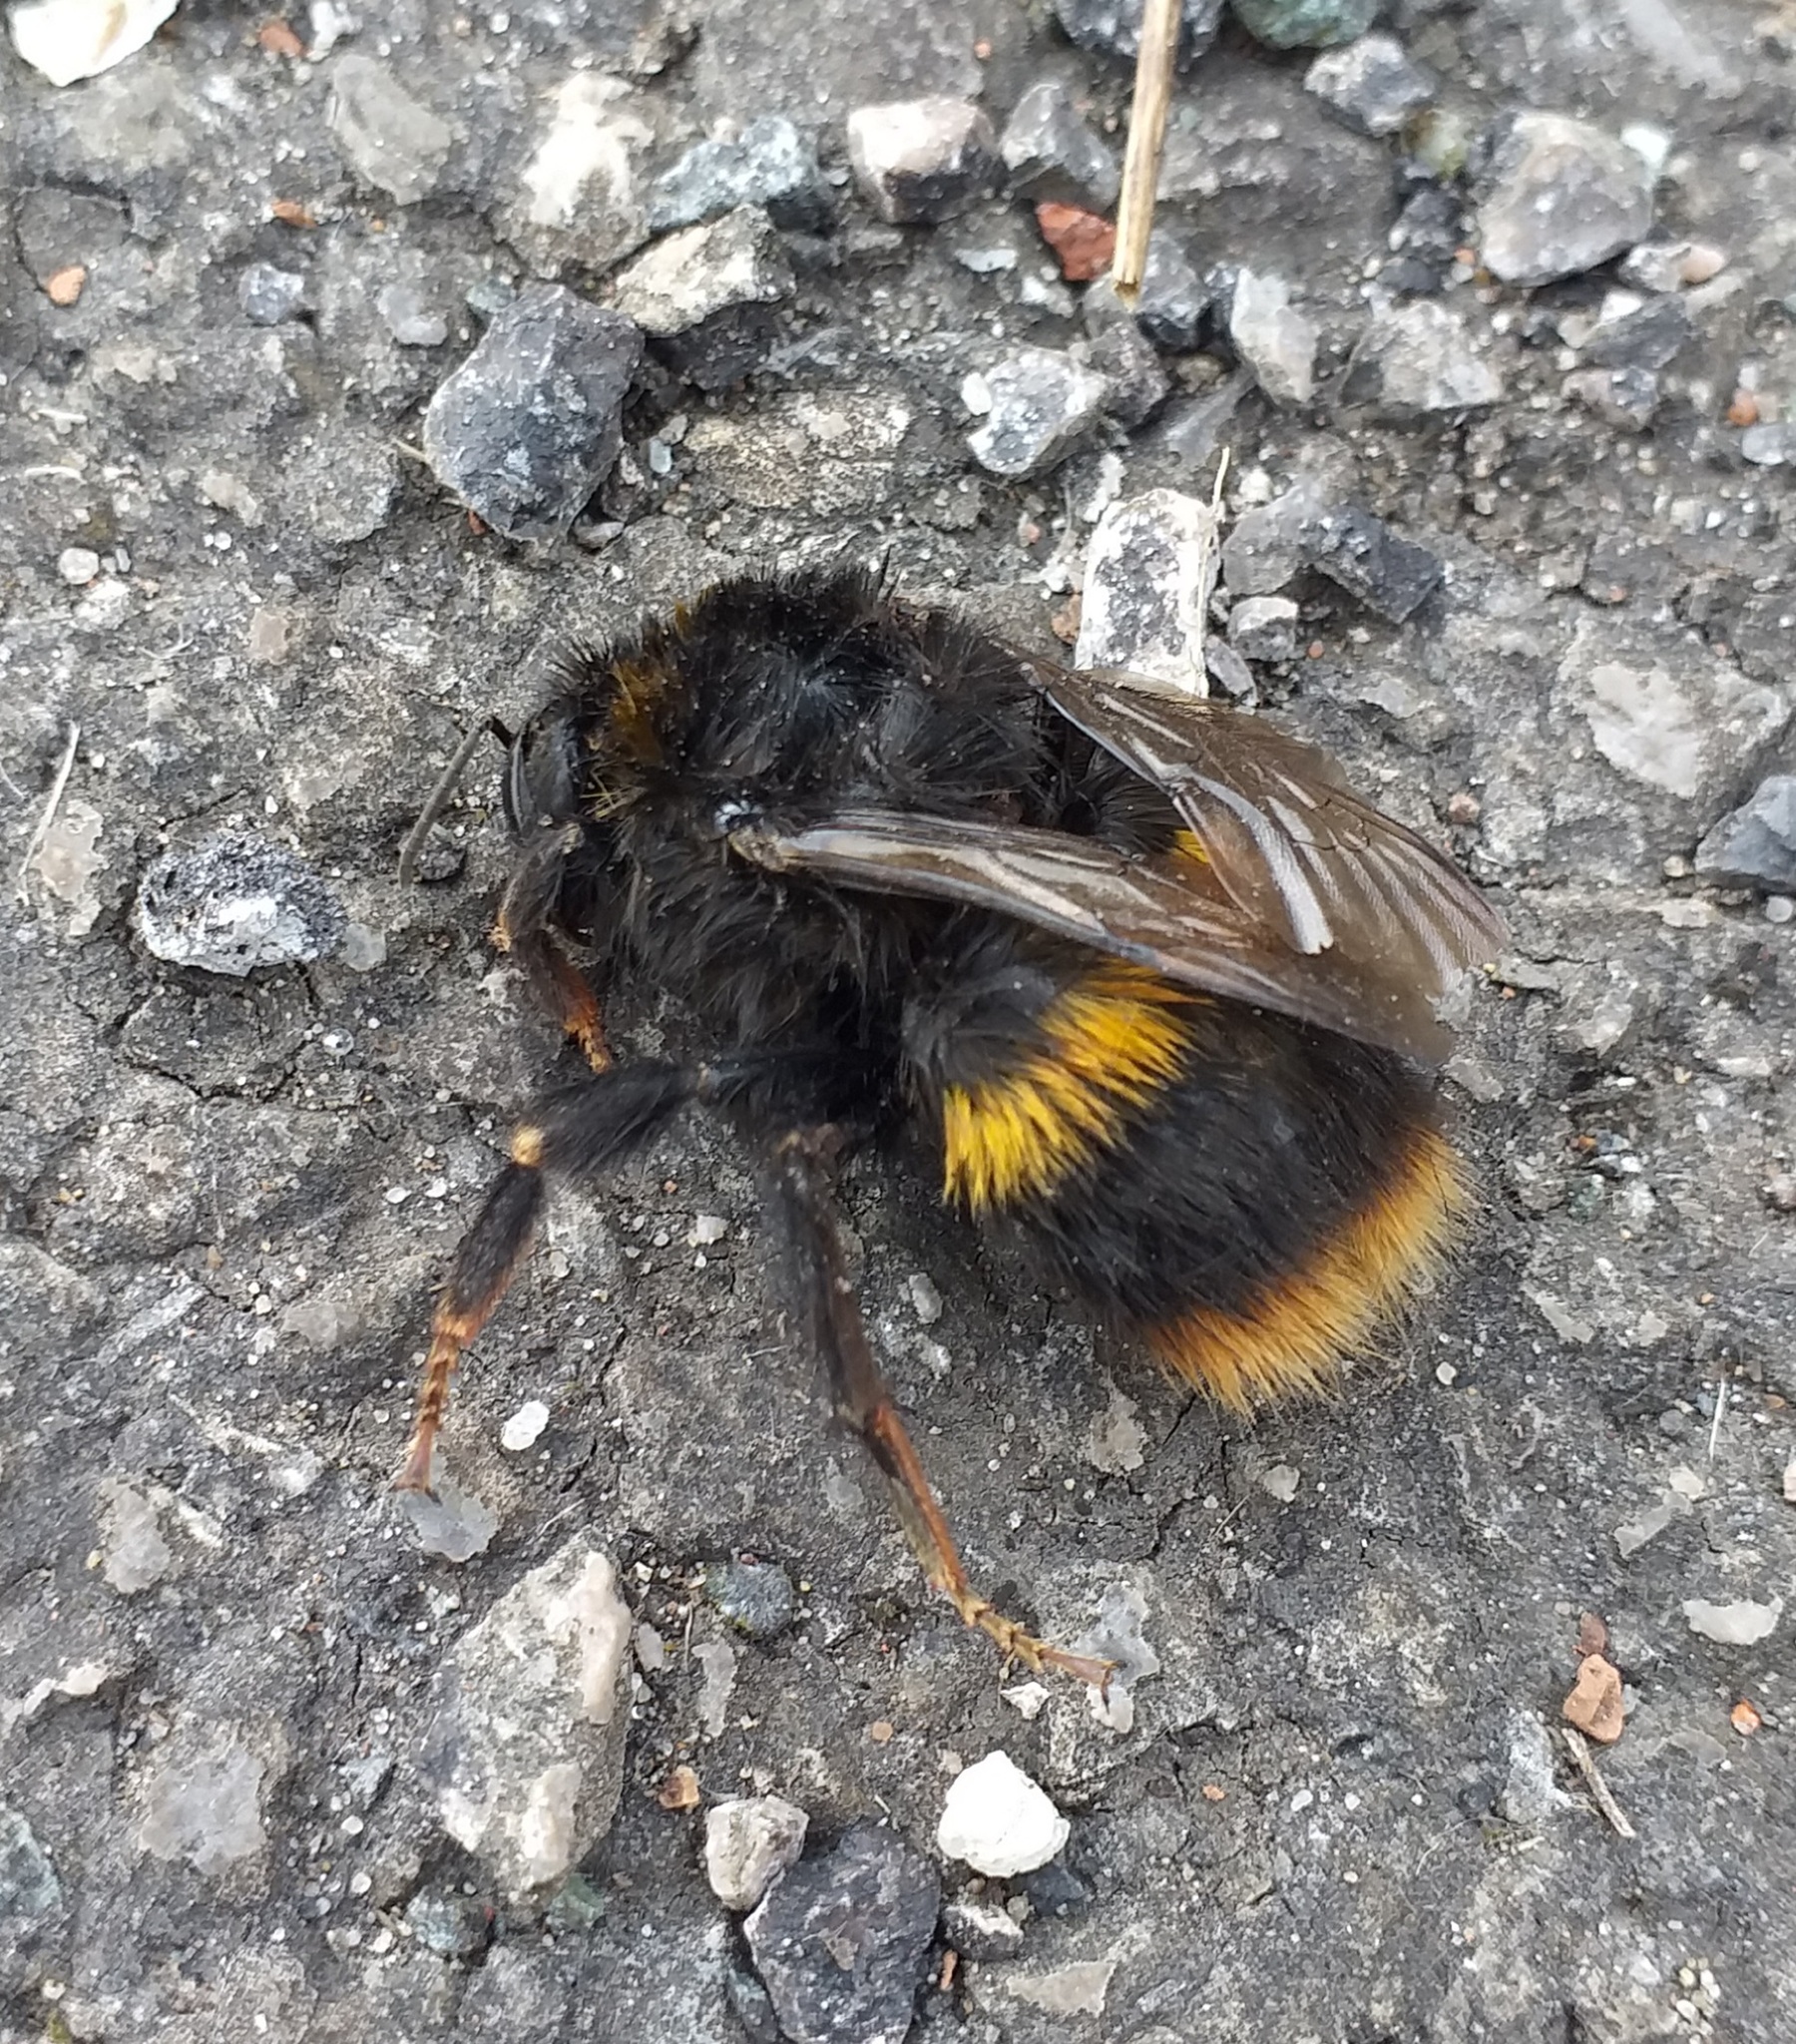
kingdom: Animalia
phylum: Arthropoda
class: Insecta
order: Hymenoptera
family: Apidae
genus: Bombus
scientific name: Bombus pratorum
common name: Early humble-bee
